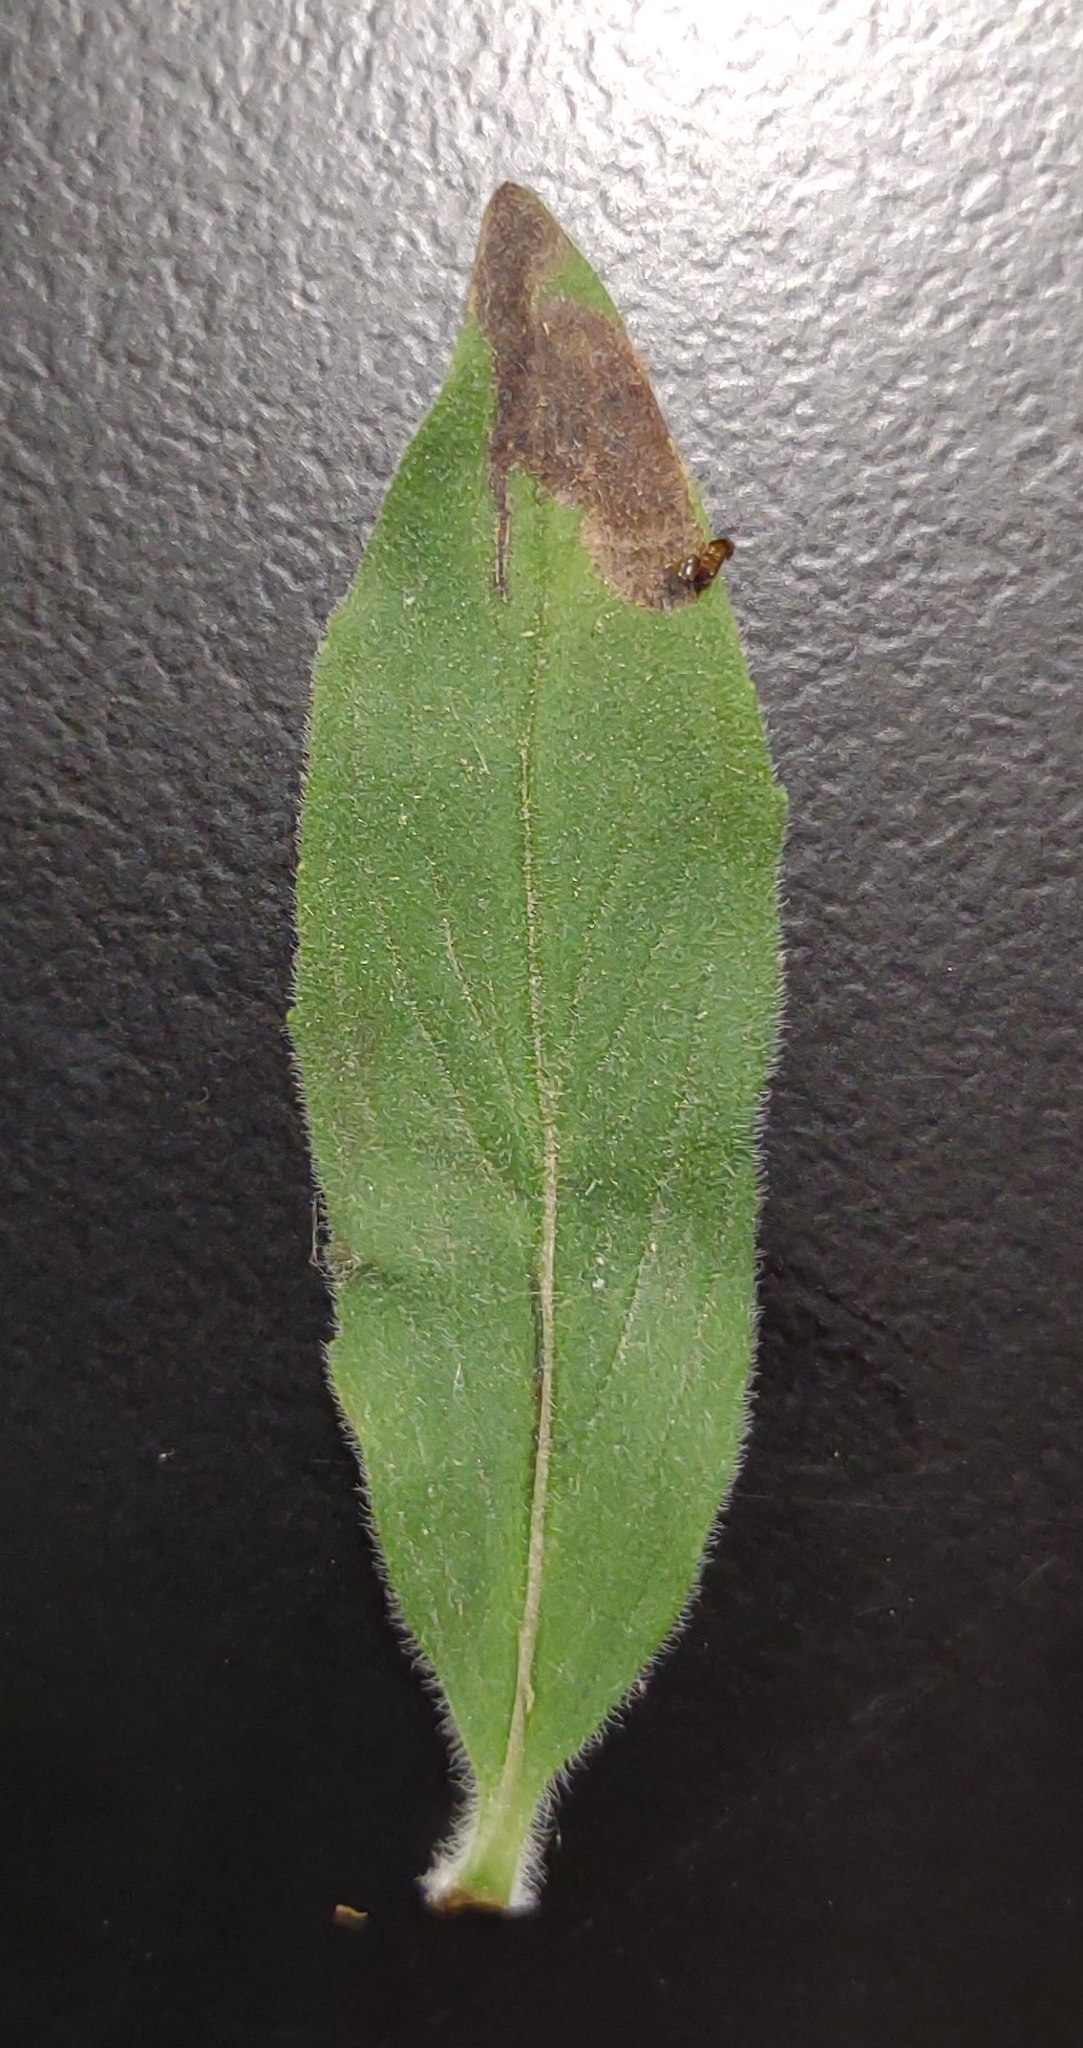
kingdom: Animalia
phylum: Arthropoda
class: Insecta
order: Diptera
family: Agromyzidae
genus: Calycomyza
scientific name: Calycomyza menthae
